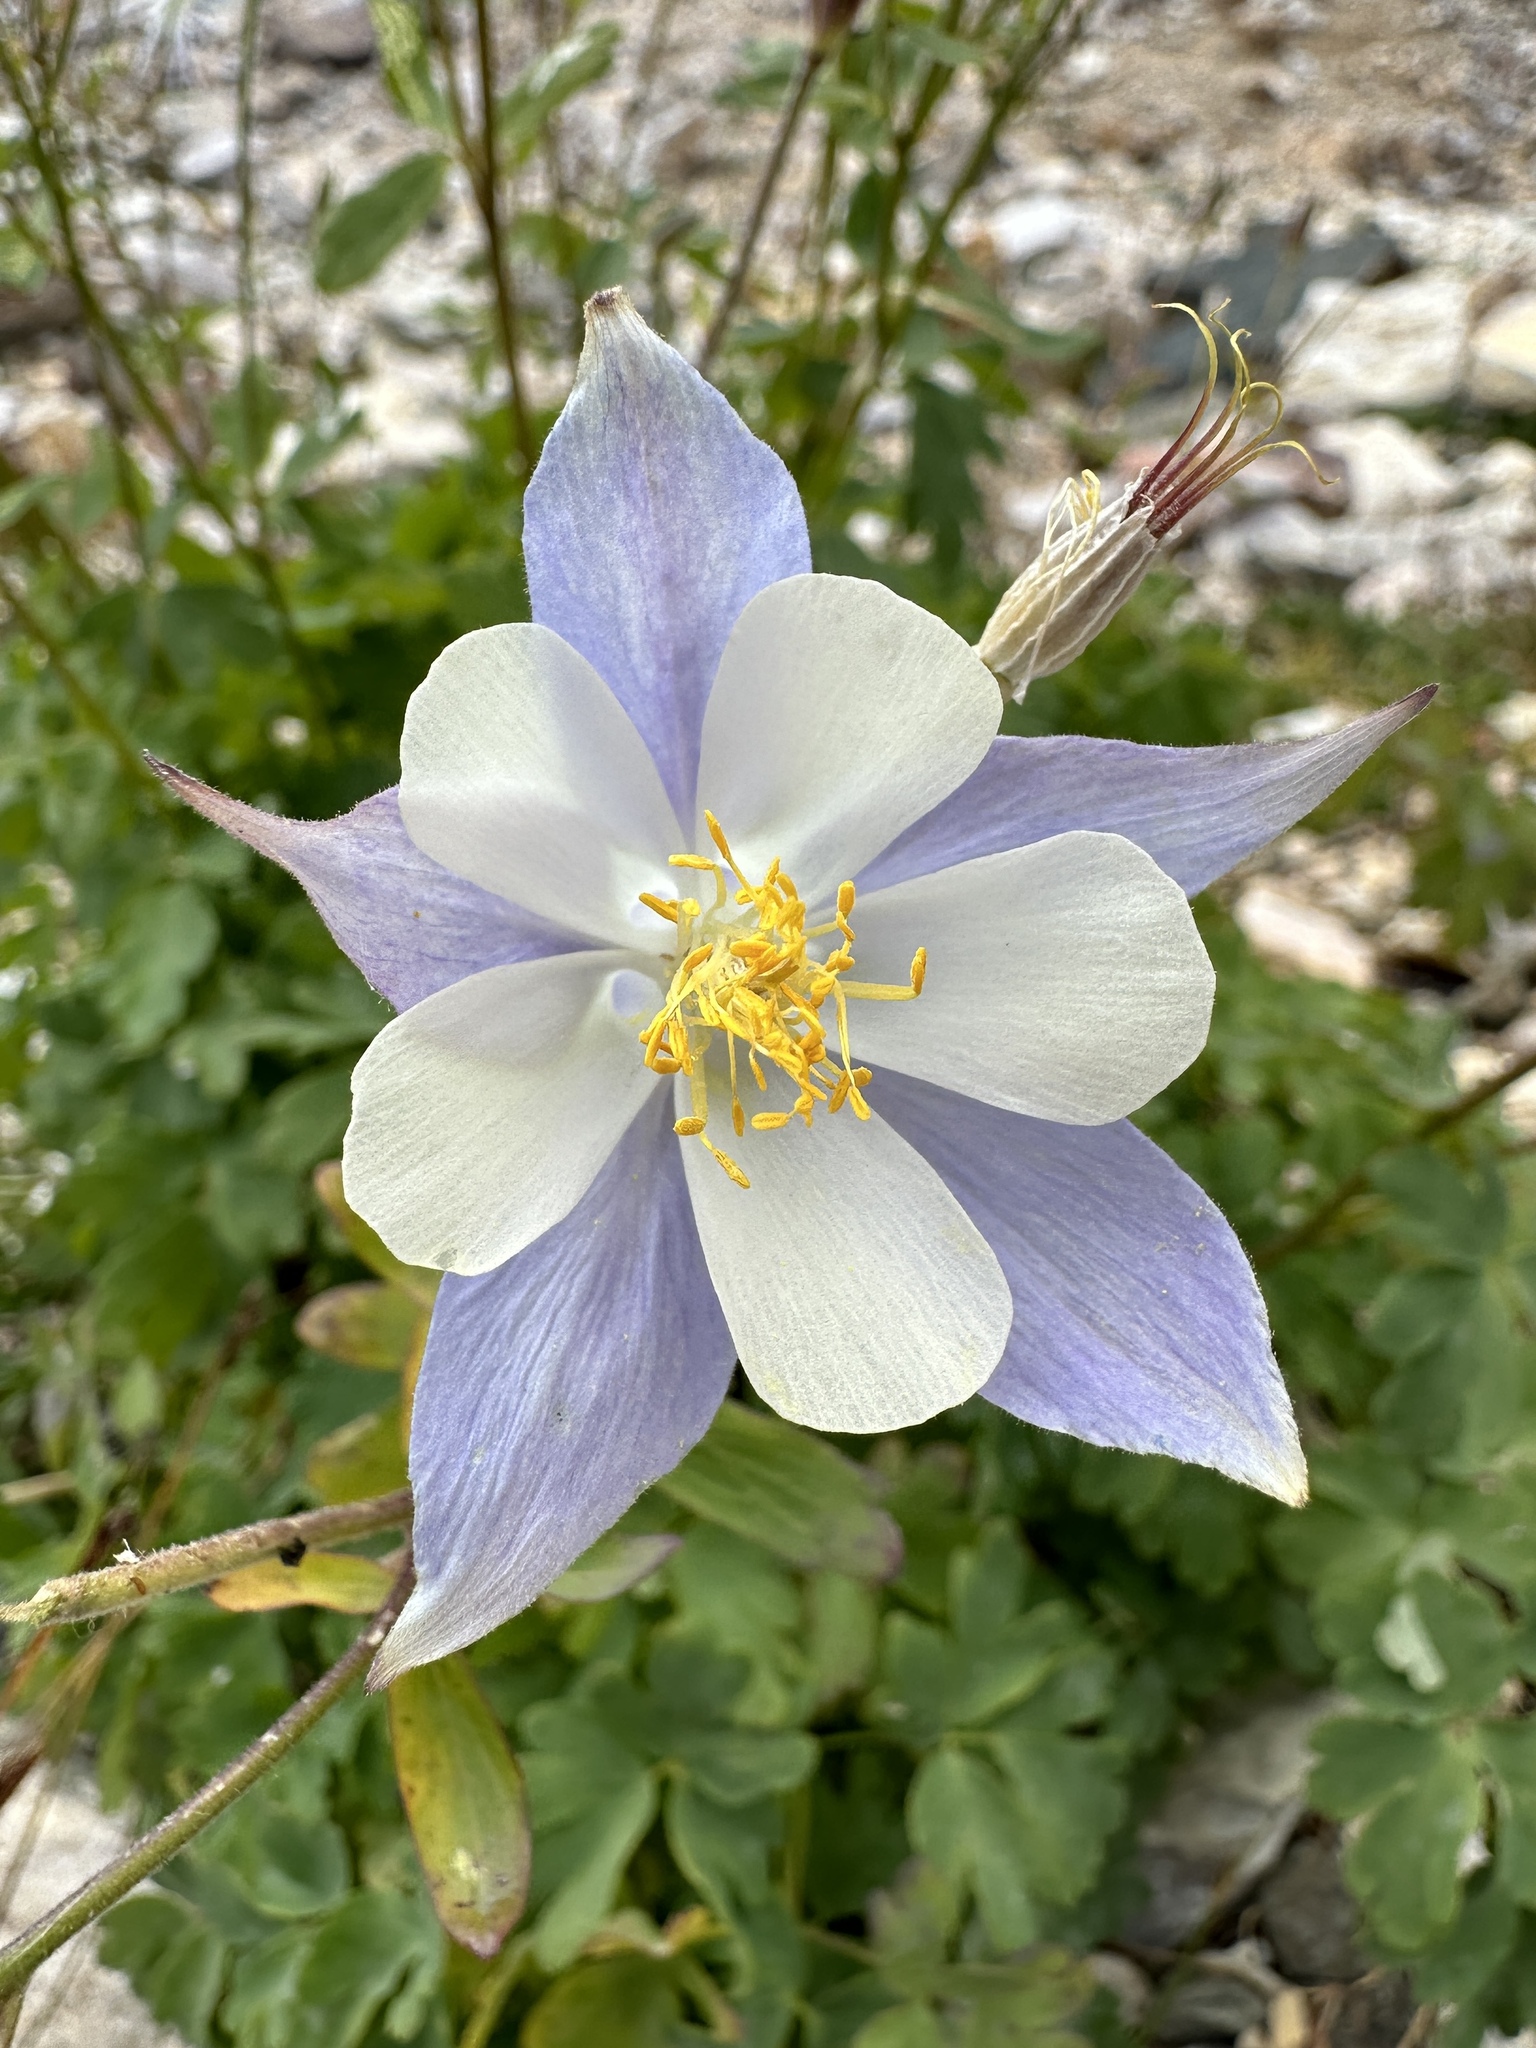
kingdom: Plantae
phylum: Tracheophyta
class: Magnoliopsida
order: Ranunculales
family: Ranunculaceae
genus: Aquilegia
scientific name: Aquilegia coerulea
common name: Rocky mountain columbine
